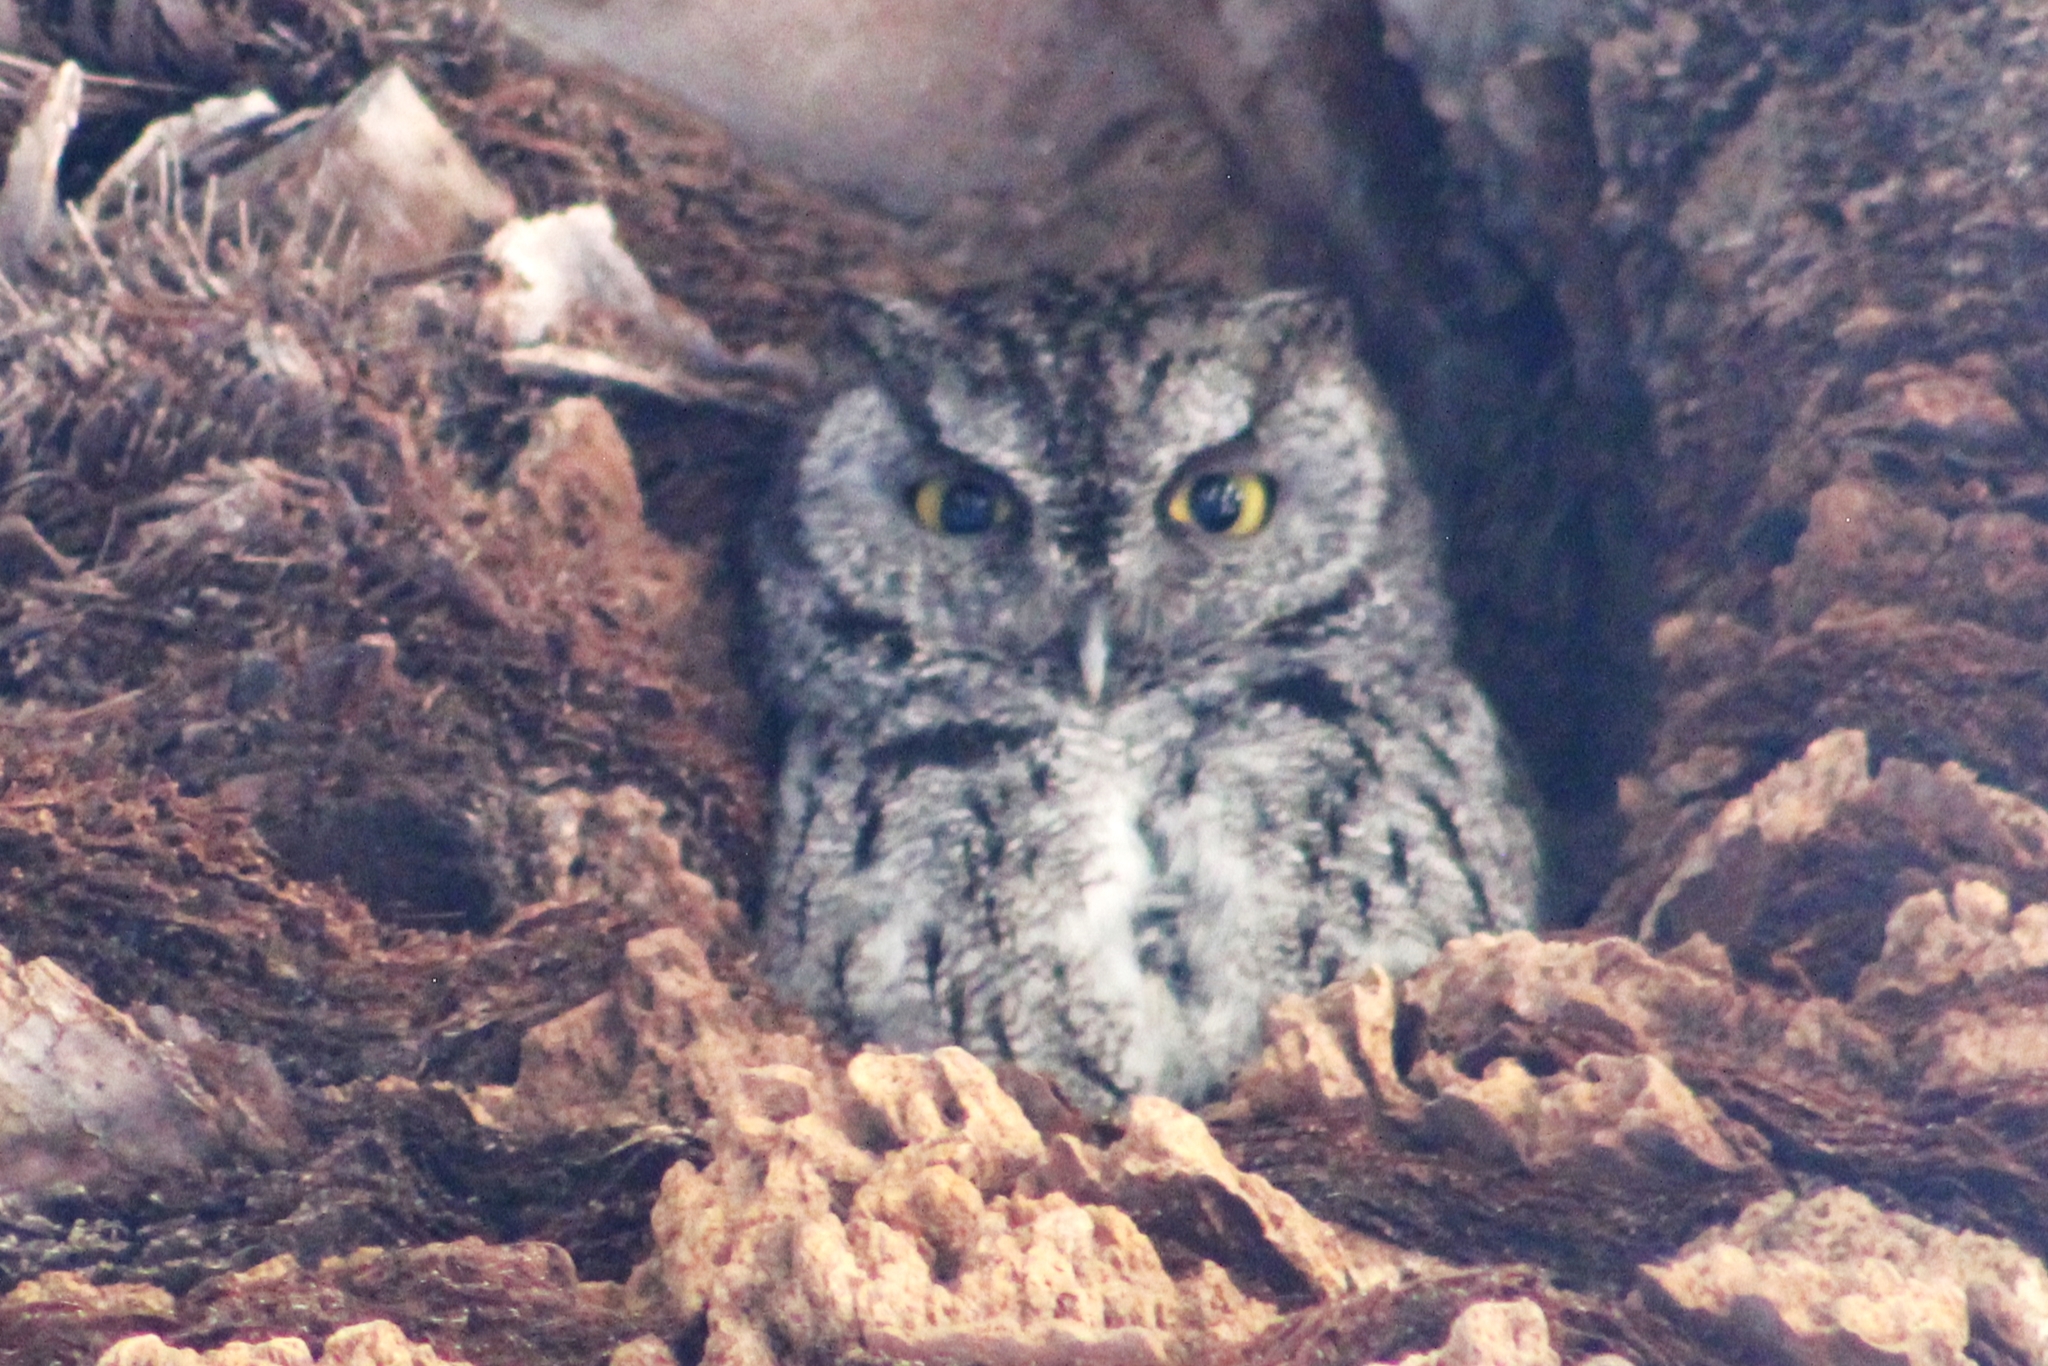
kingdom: Animalia
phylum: Chordata
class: Aves
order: Strigiformes
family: Strigidae
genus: Megascops
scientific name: Megascops kennicottii
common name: Western screech-owl
